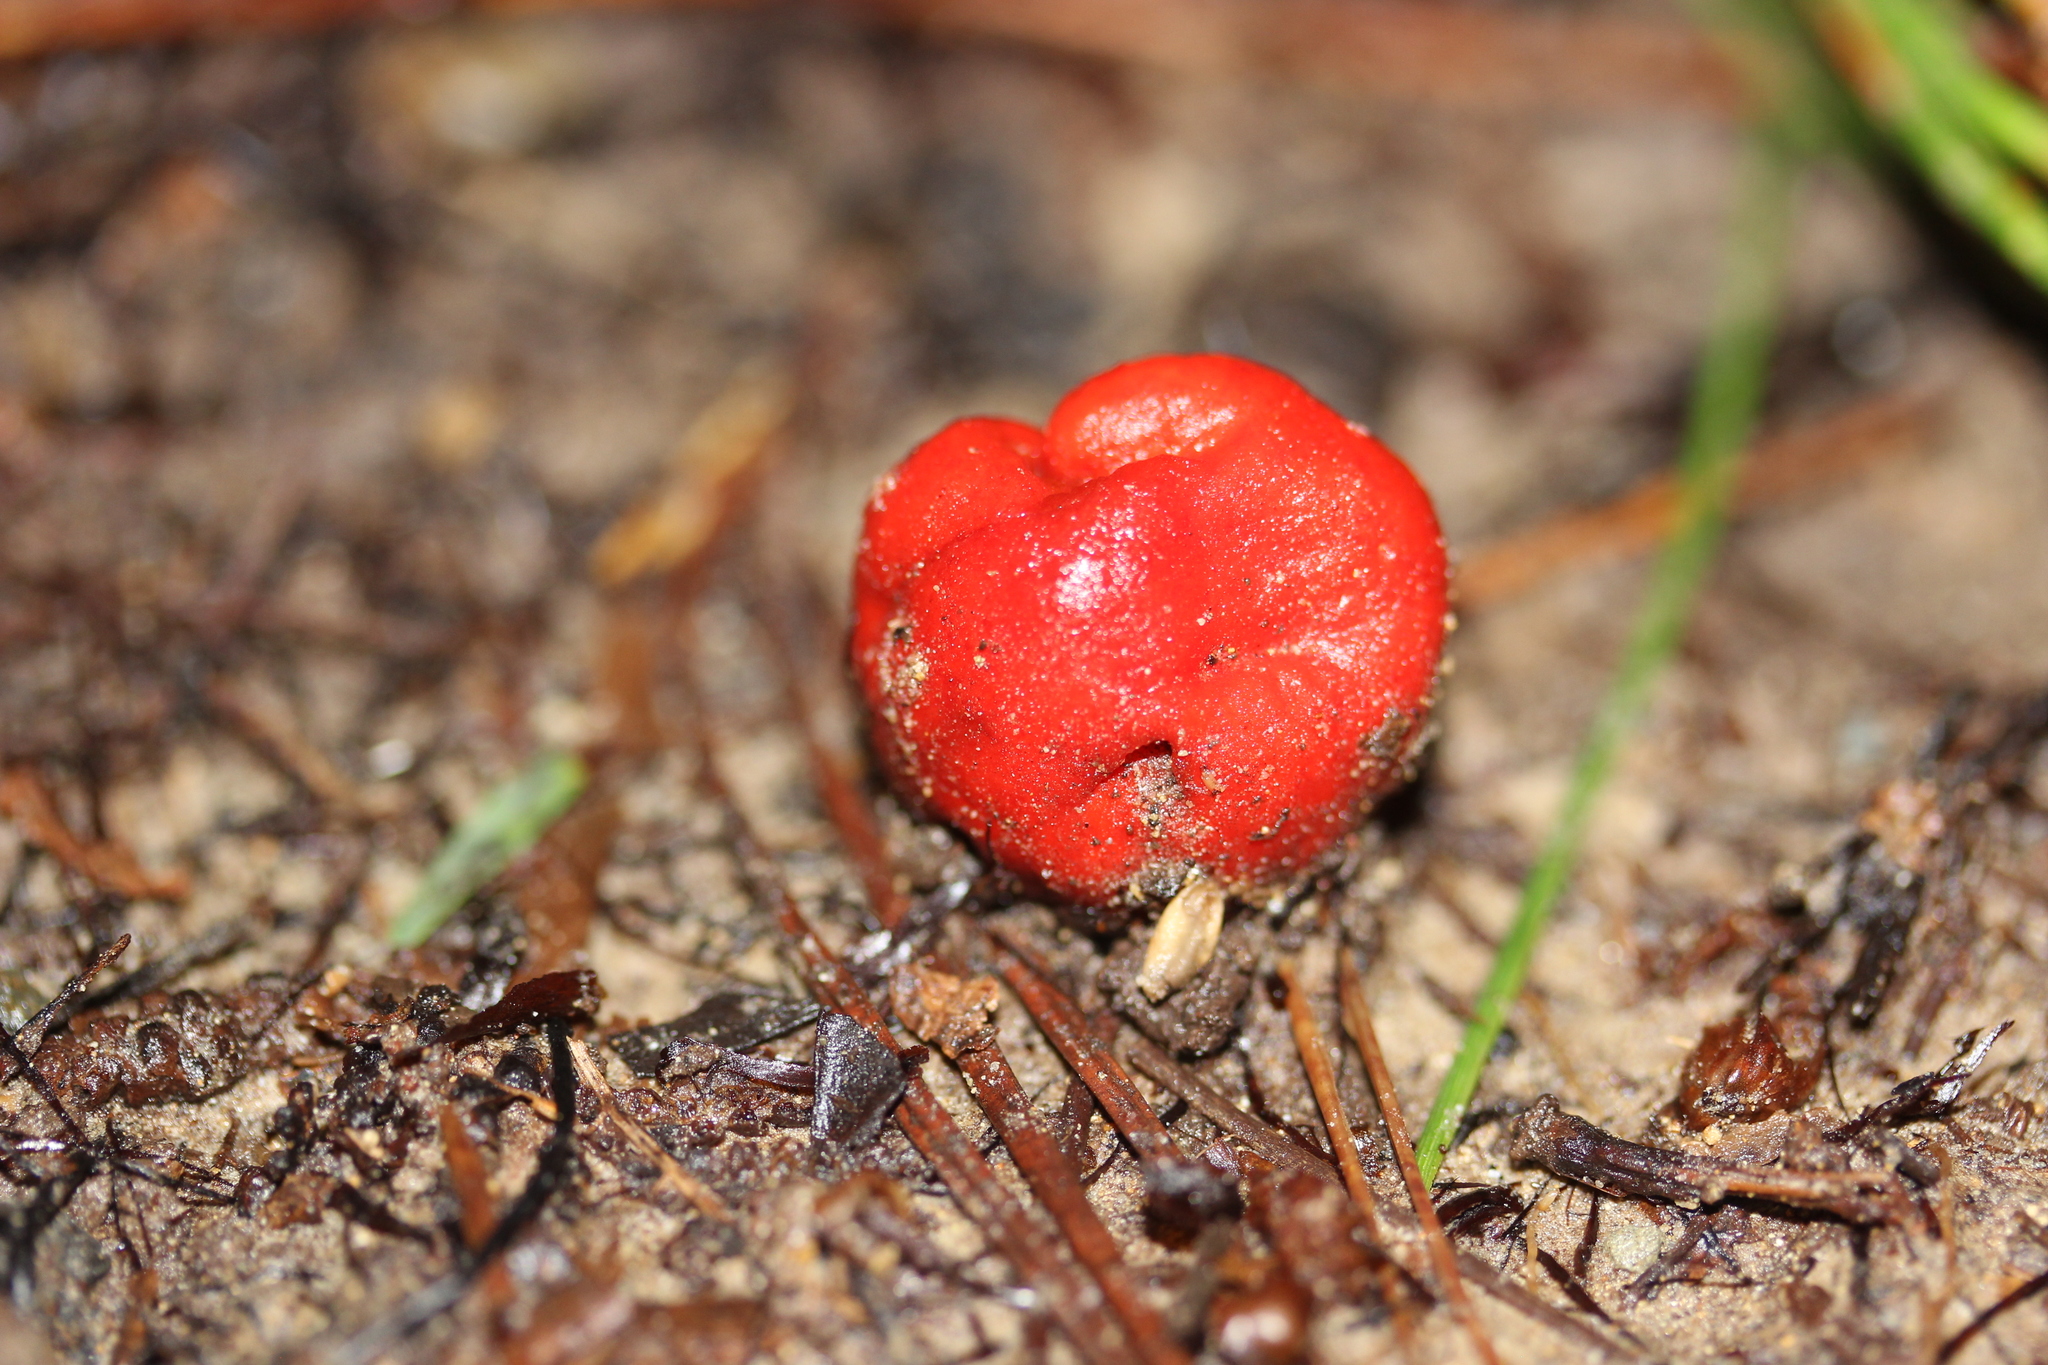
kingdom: Fungi
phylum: Basidiomycota
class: Agaricomycetes
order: Agaricales
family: Strophariaceae
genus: Leratiomyces
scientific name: Leratiomyces erythrocephalus
